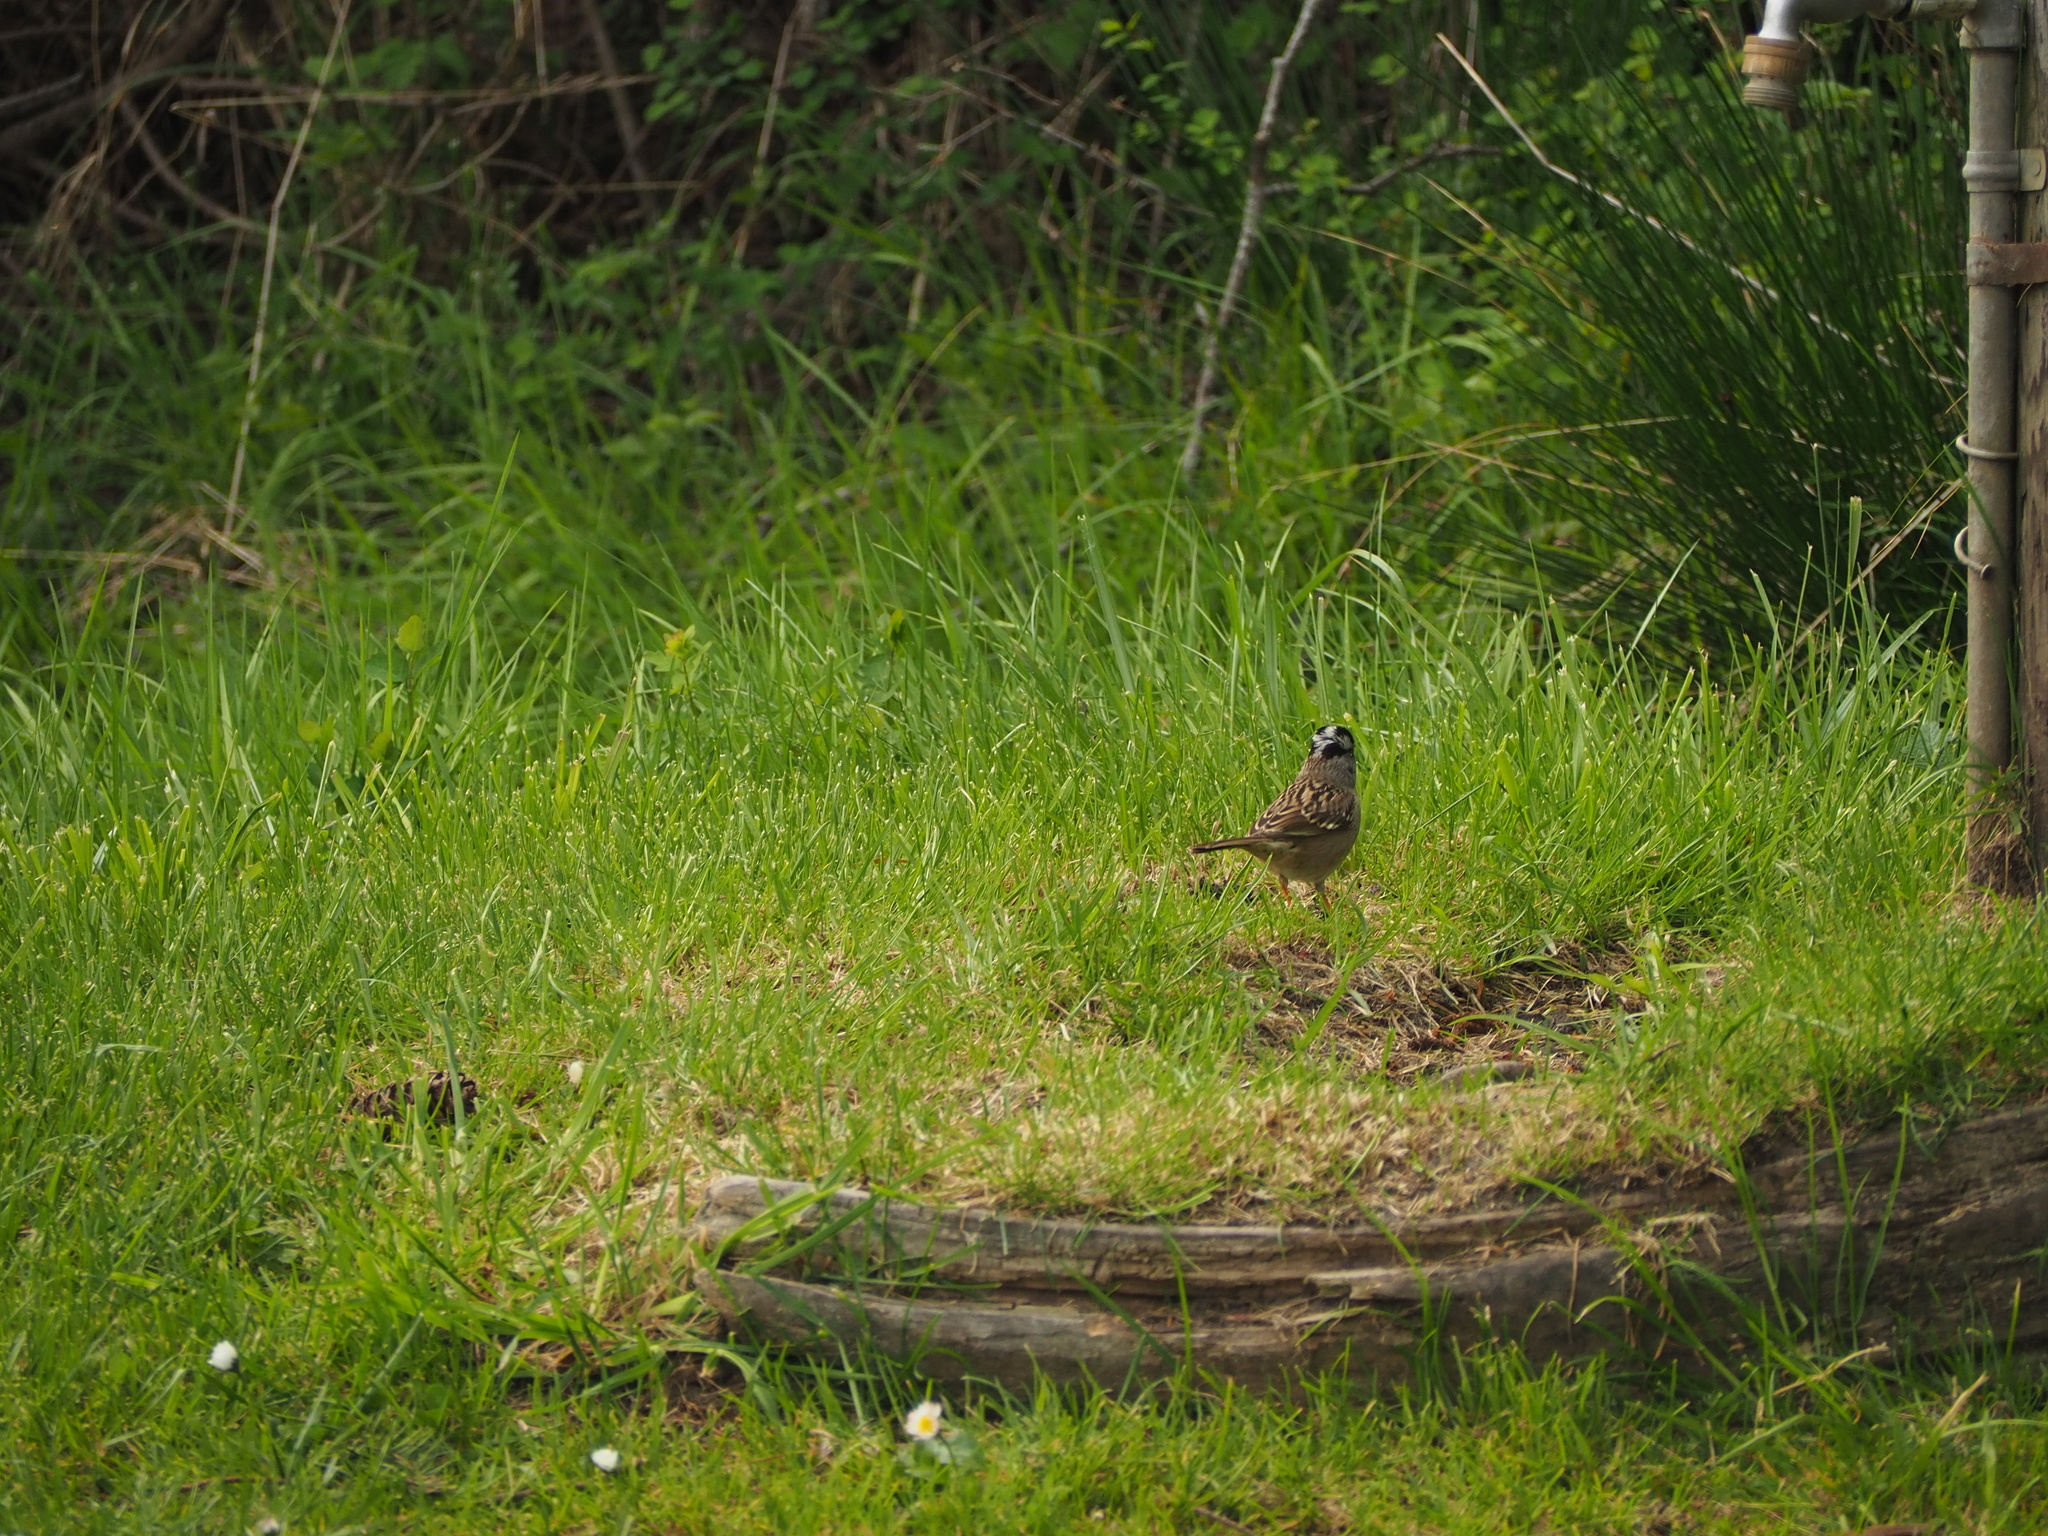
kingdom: Animalia
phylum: Chordata
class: Aves
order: Passeriformes
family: Passerellidae
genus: Zonotrichia
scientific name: Zonotrichia leucophrys
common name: White-crowned sparrow
